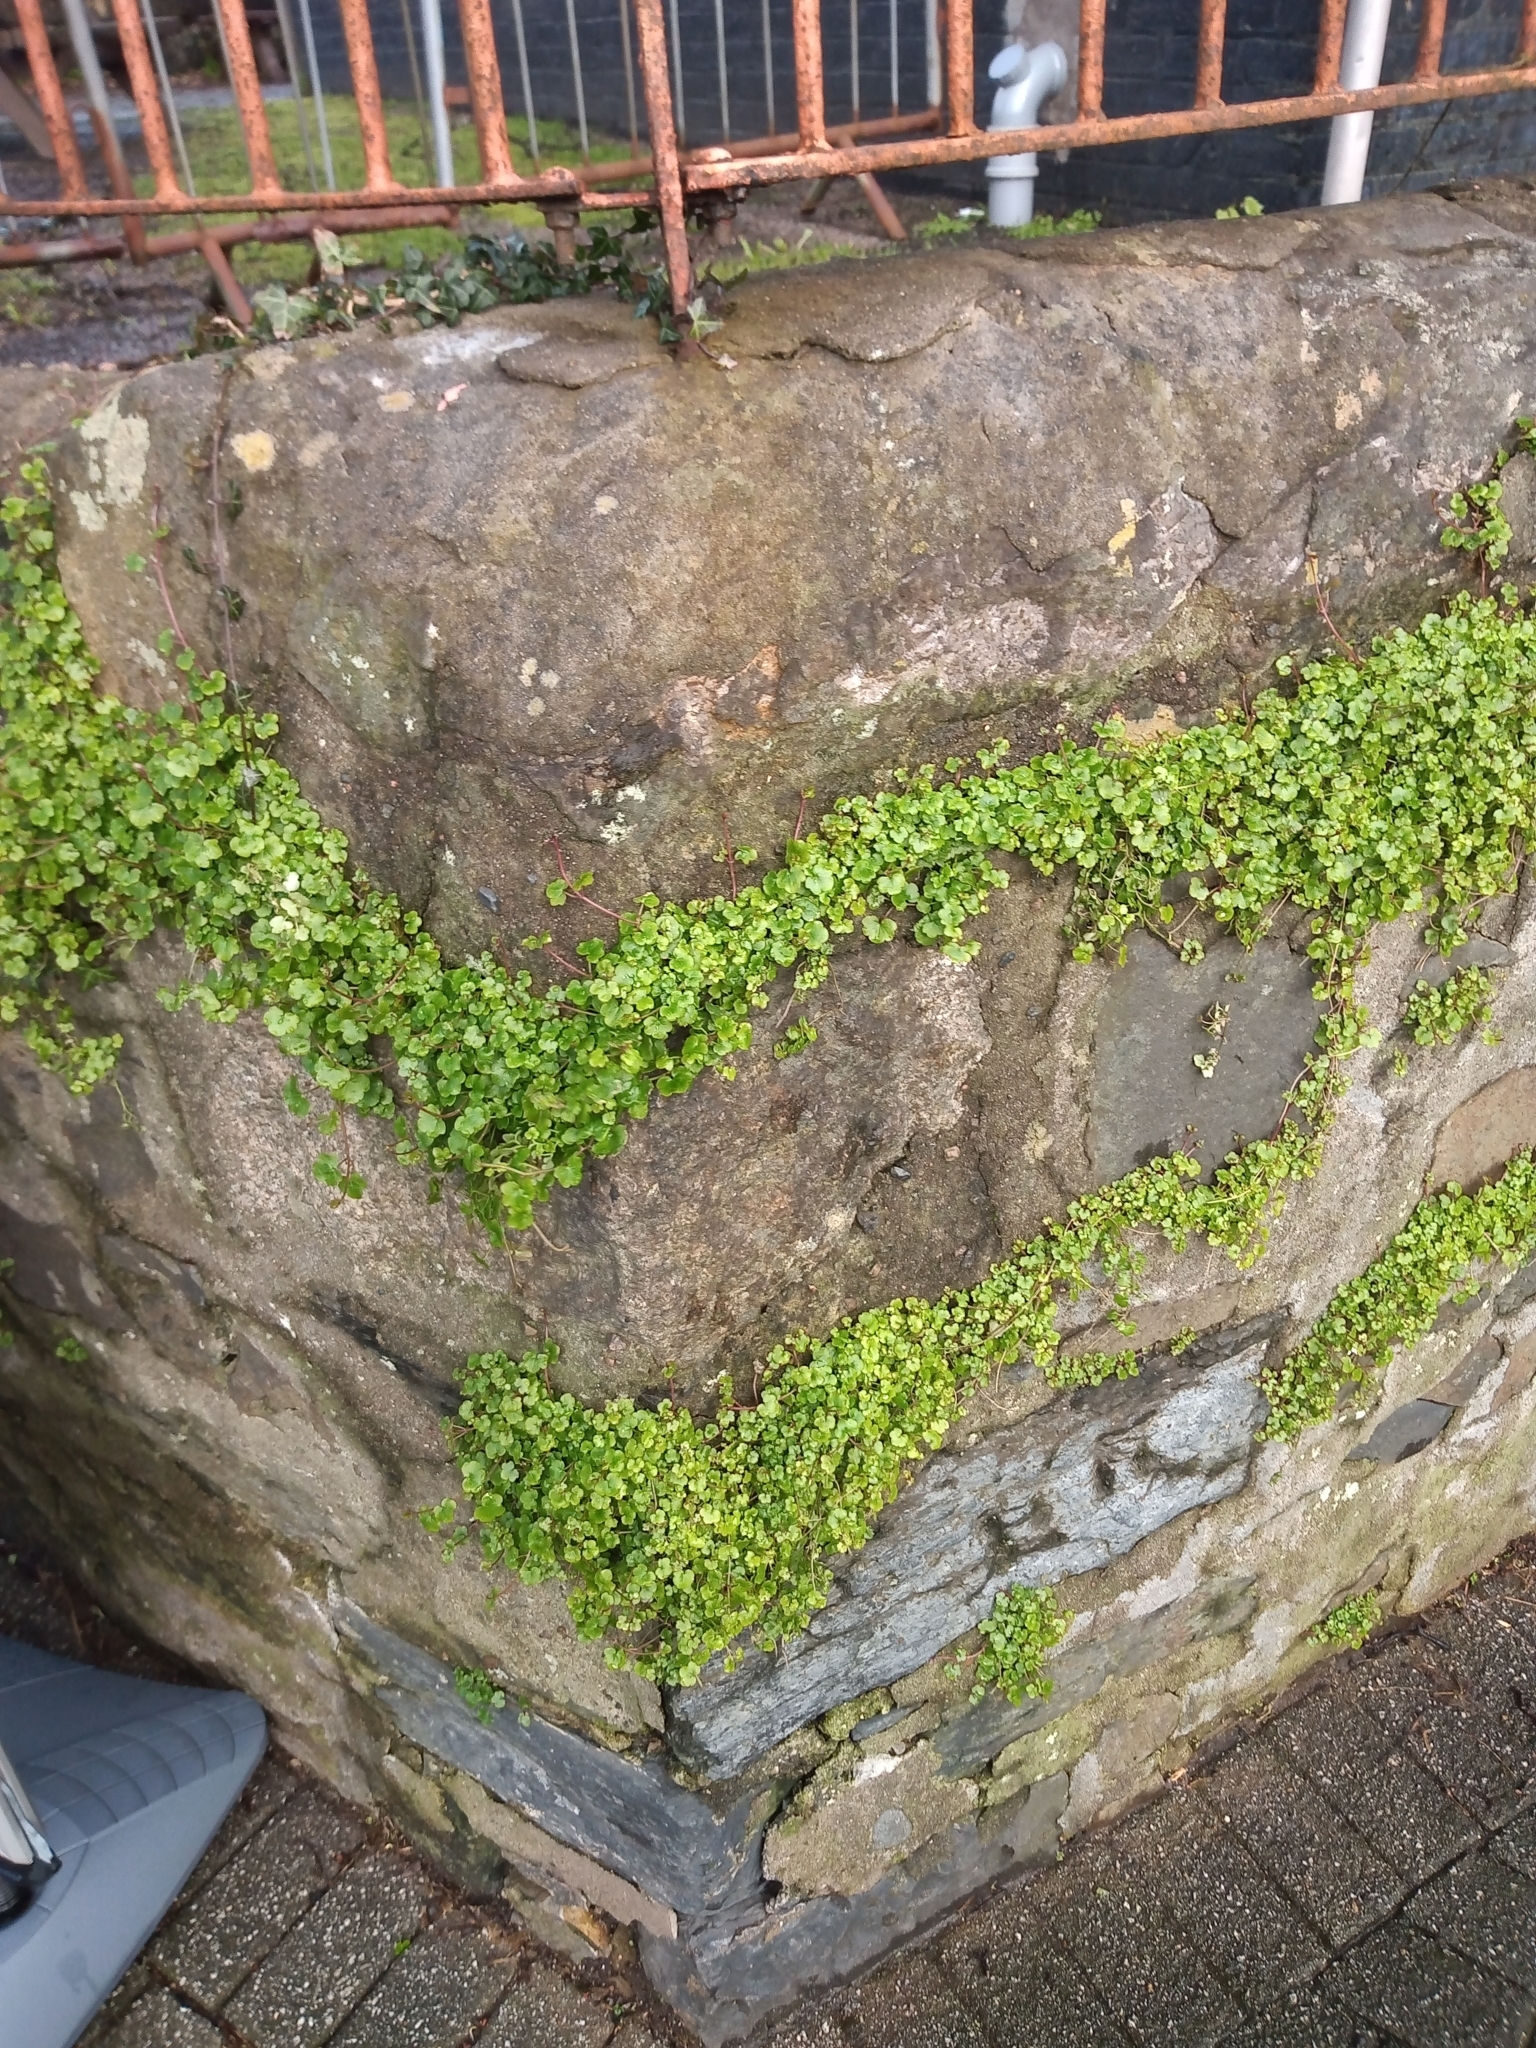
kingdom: Plantae
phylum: Tracheophyta
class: Magnoliopsida
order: Lamiales
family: Plantaginaceae
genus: Cymbalaria
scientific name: Cymbalaria muralis
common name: Ivy-leaved toadflax
